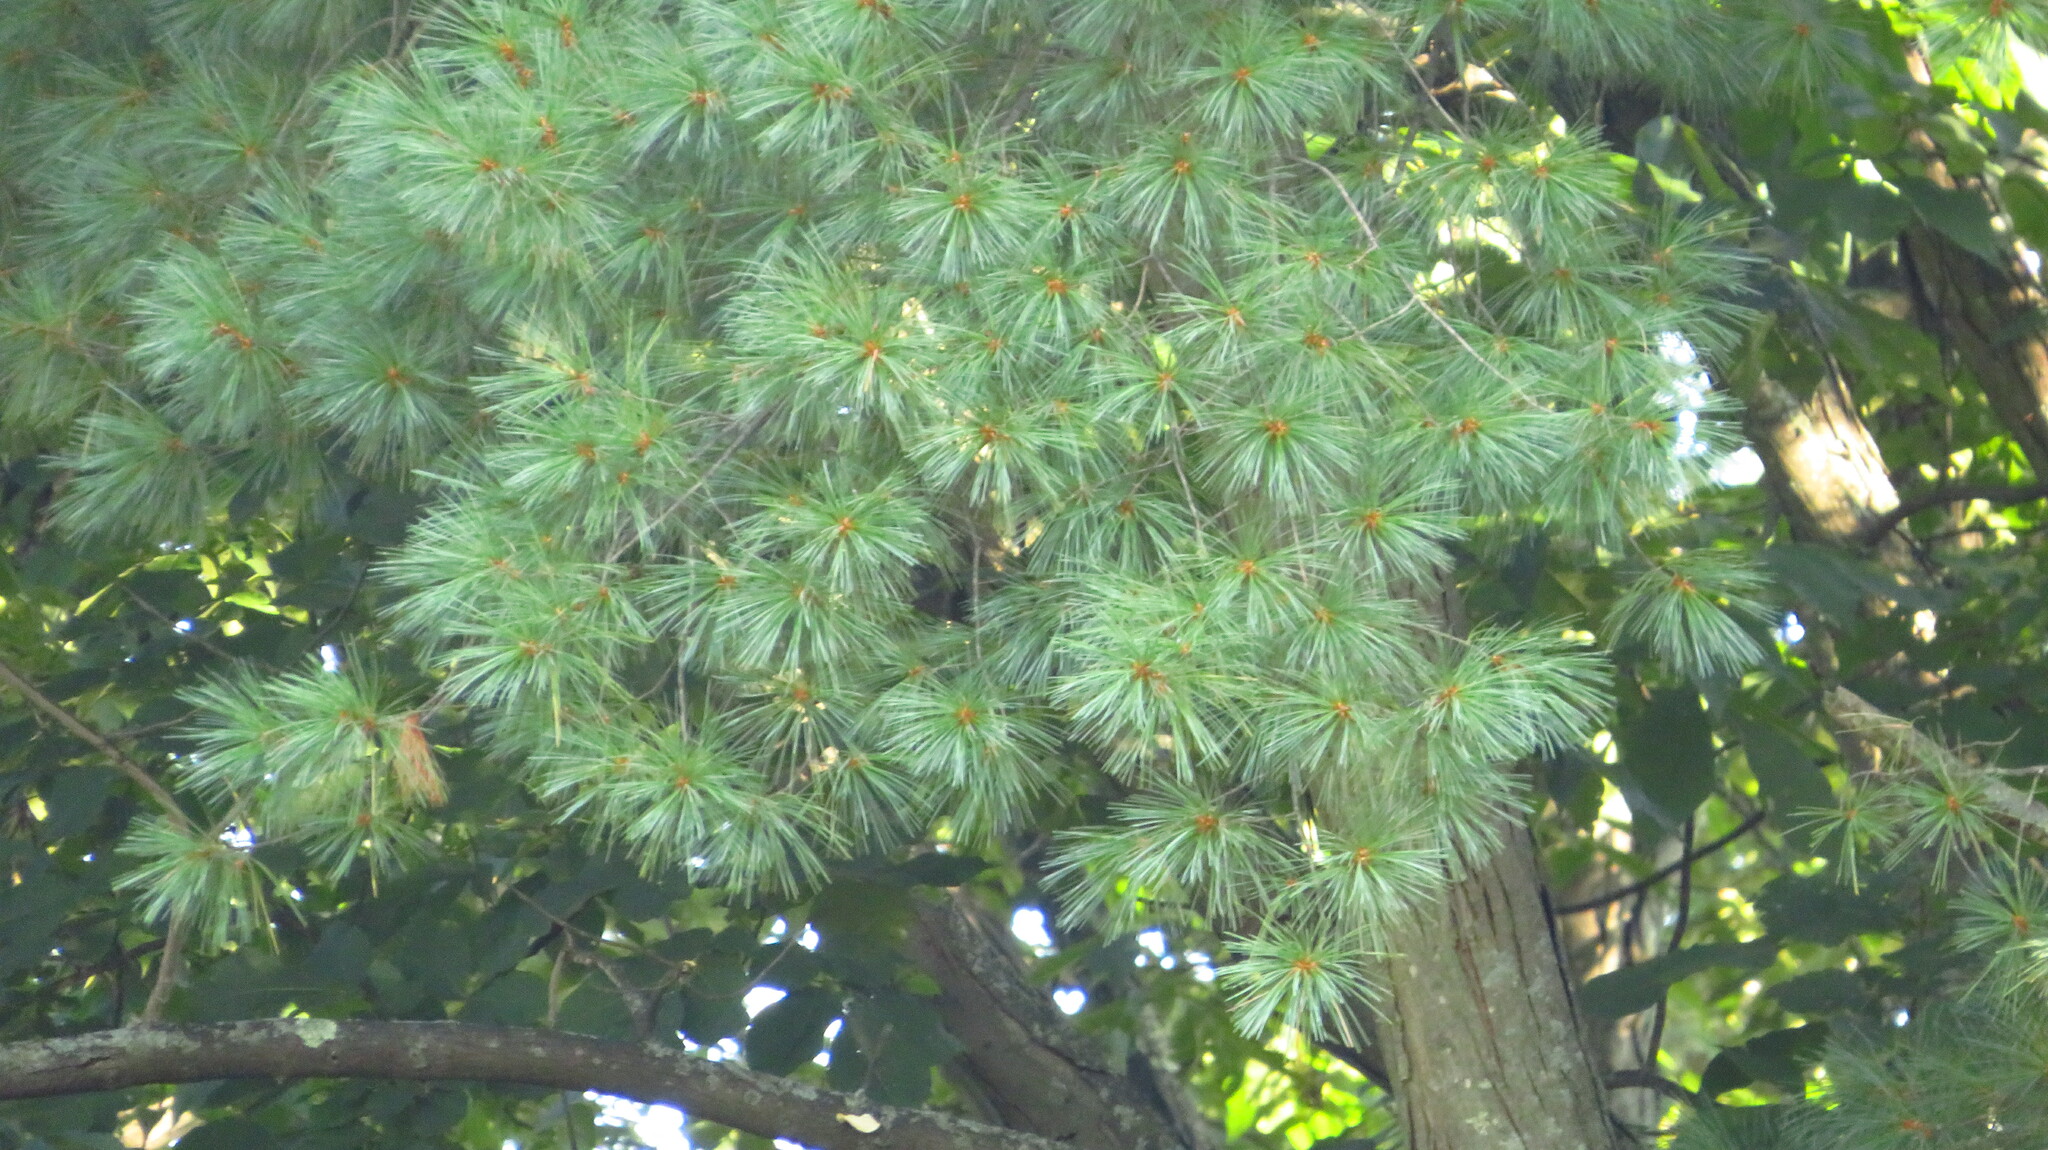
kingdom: Plantae
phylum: Tracheophyta
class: Pinopsida
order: Pinales
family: Pinaceae
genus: Pinus
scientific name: Pinus strobus
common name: Weymouth pine
